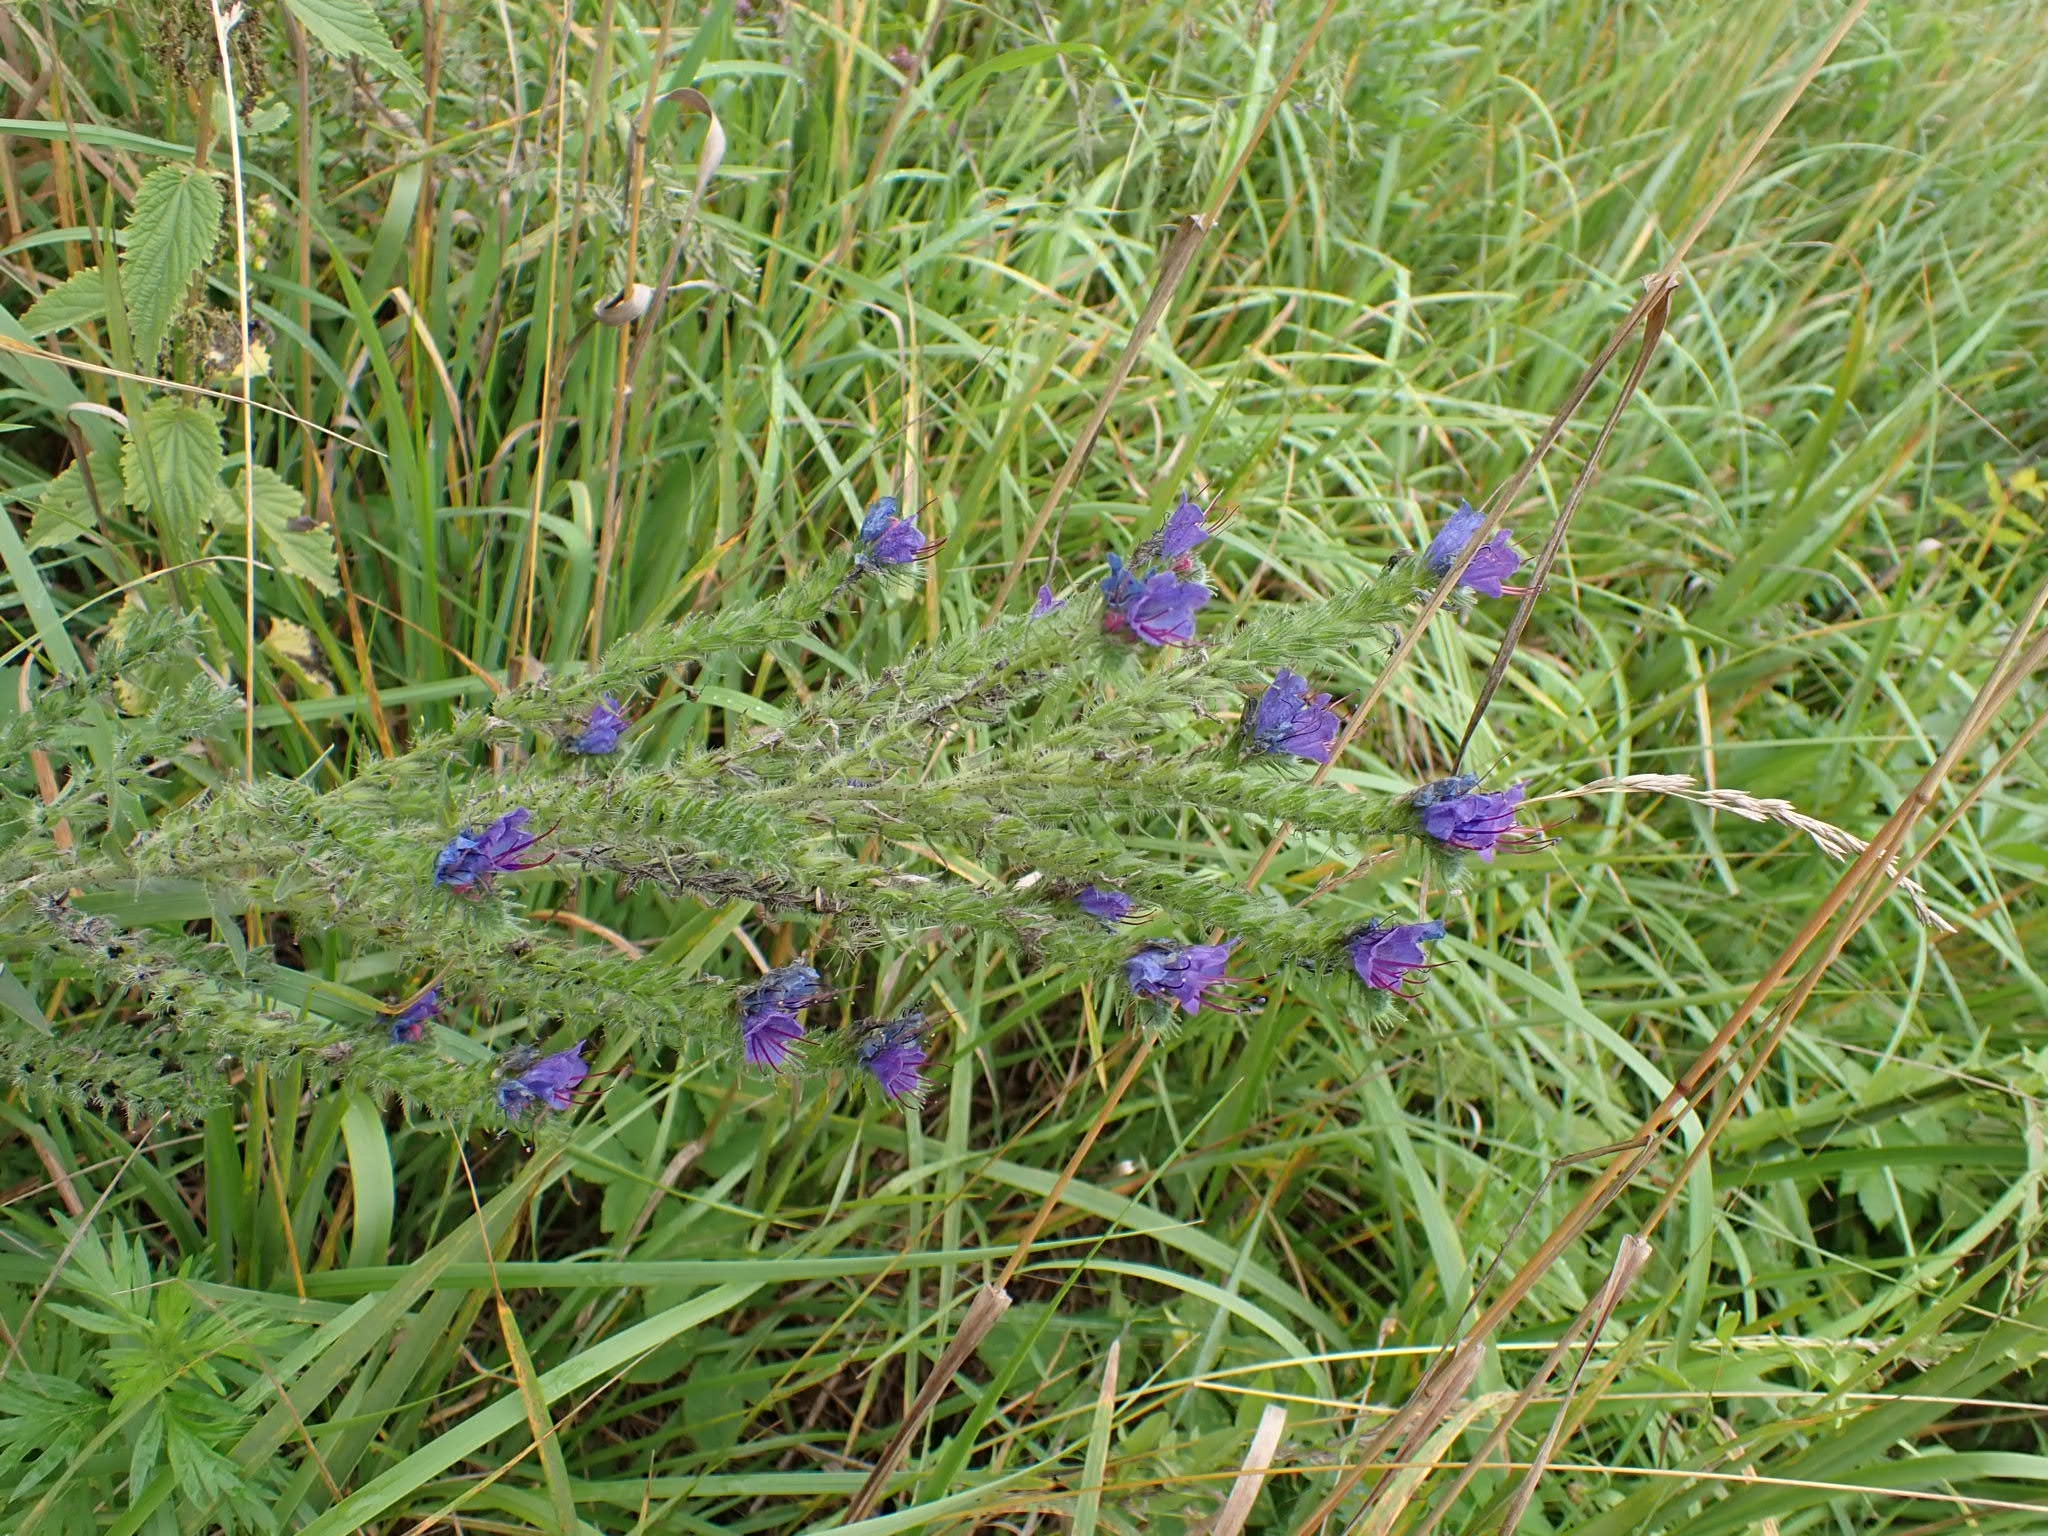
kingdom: Plantae
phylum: Tracheophyta
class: Magnoliopsida
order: Boraginales
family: Boraginaceae
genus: Echium
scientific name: Echium vulgare
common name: Common viper's bugloss
